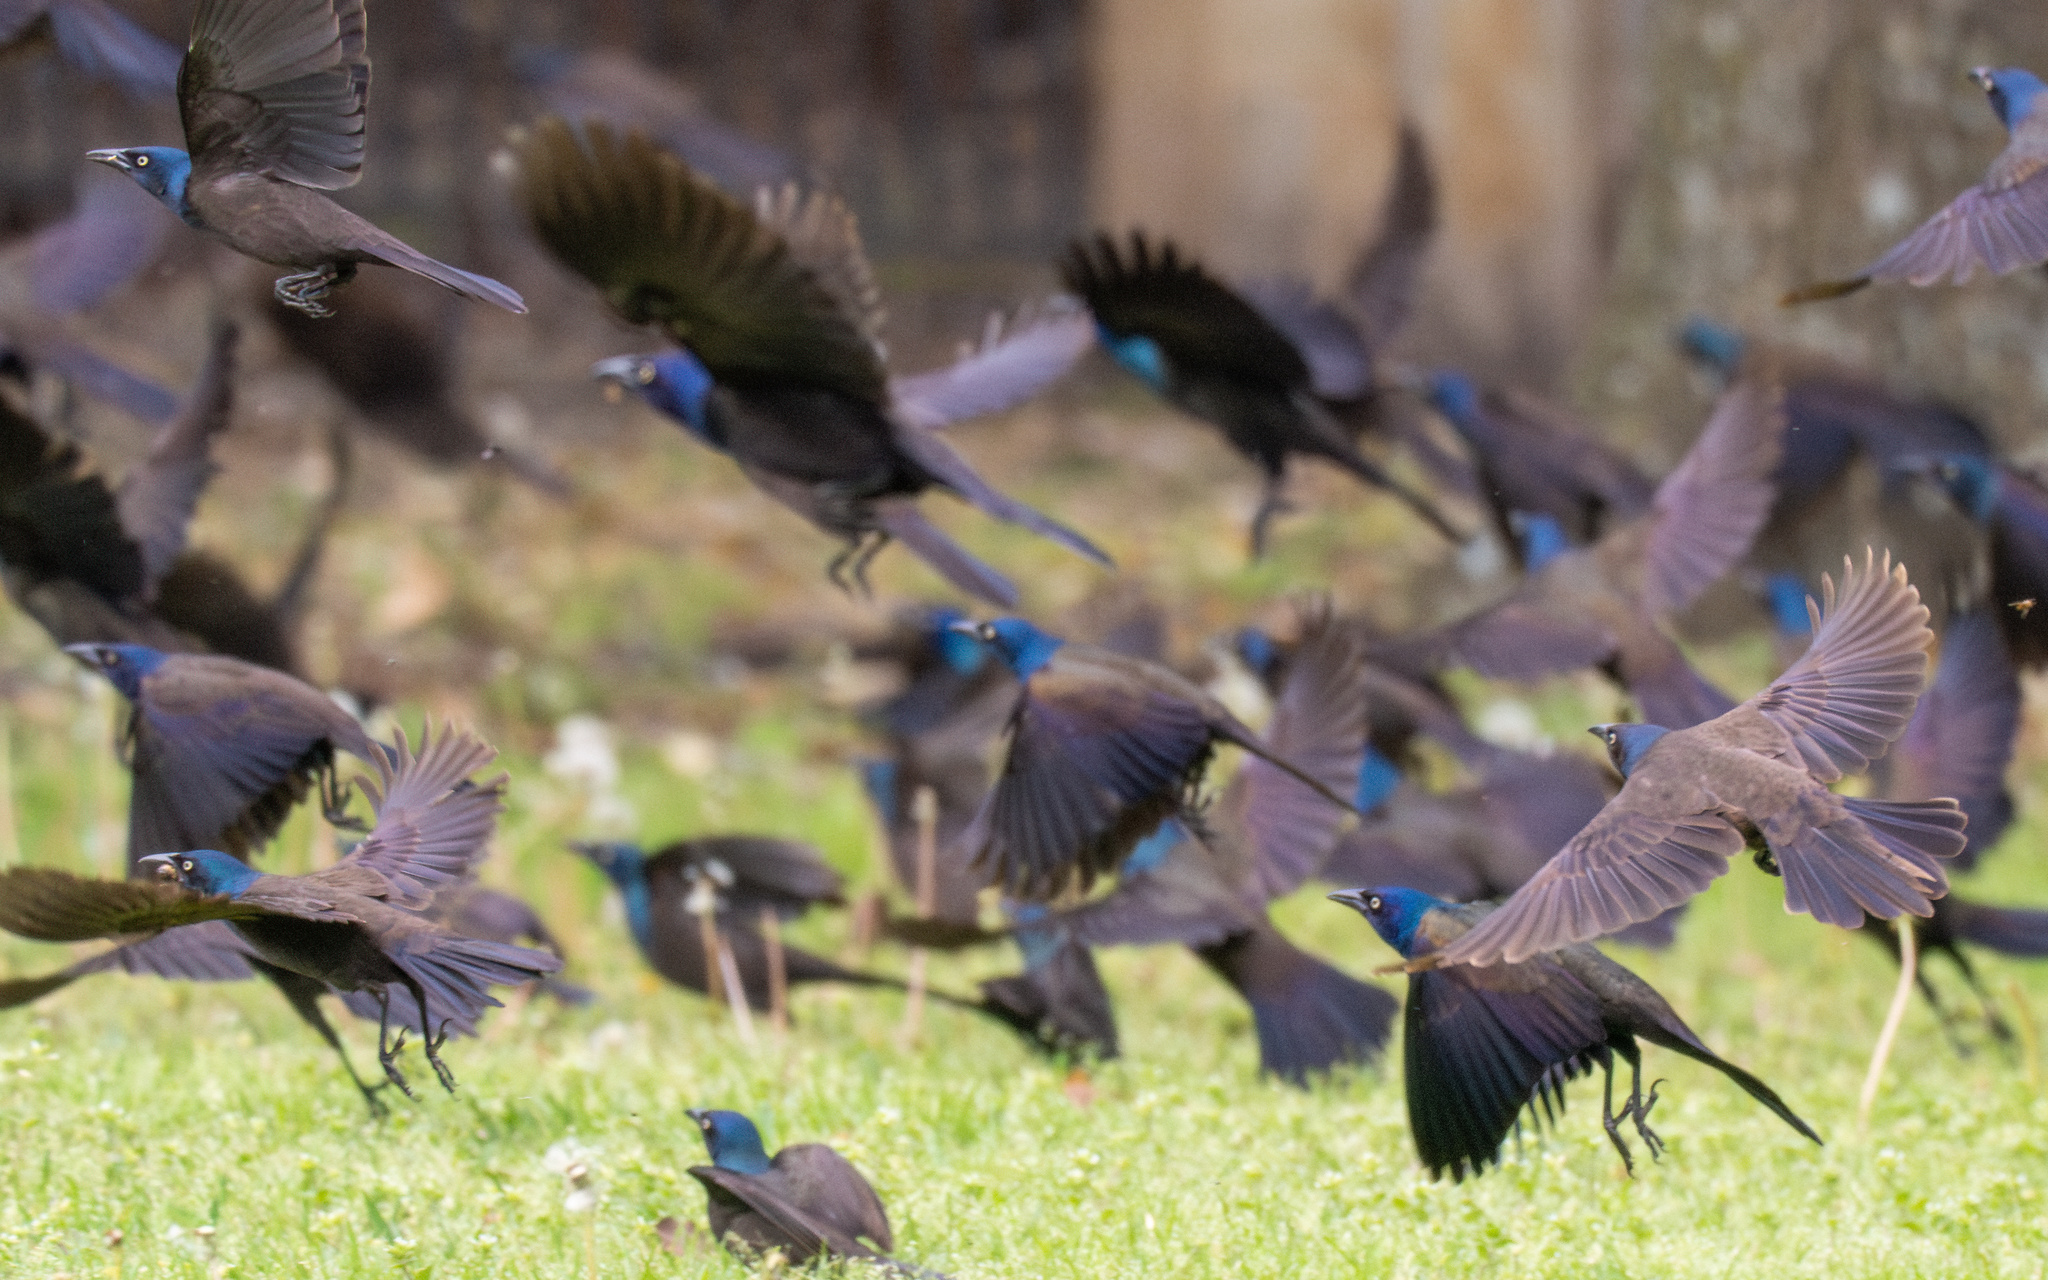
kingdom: Animalia
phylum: Chordata
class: Aves
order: Passeriformes
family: Icteridae
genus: Quiscalus
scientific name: Quiscalus quiscula
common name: Common grackle
